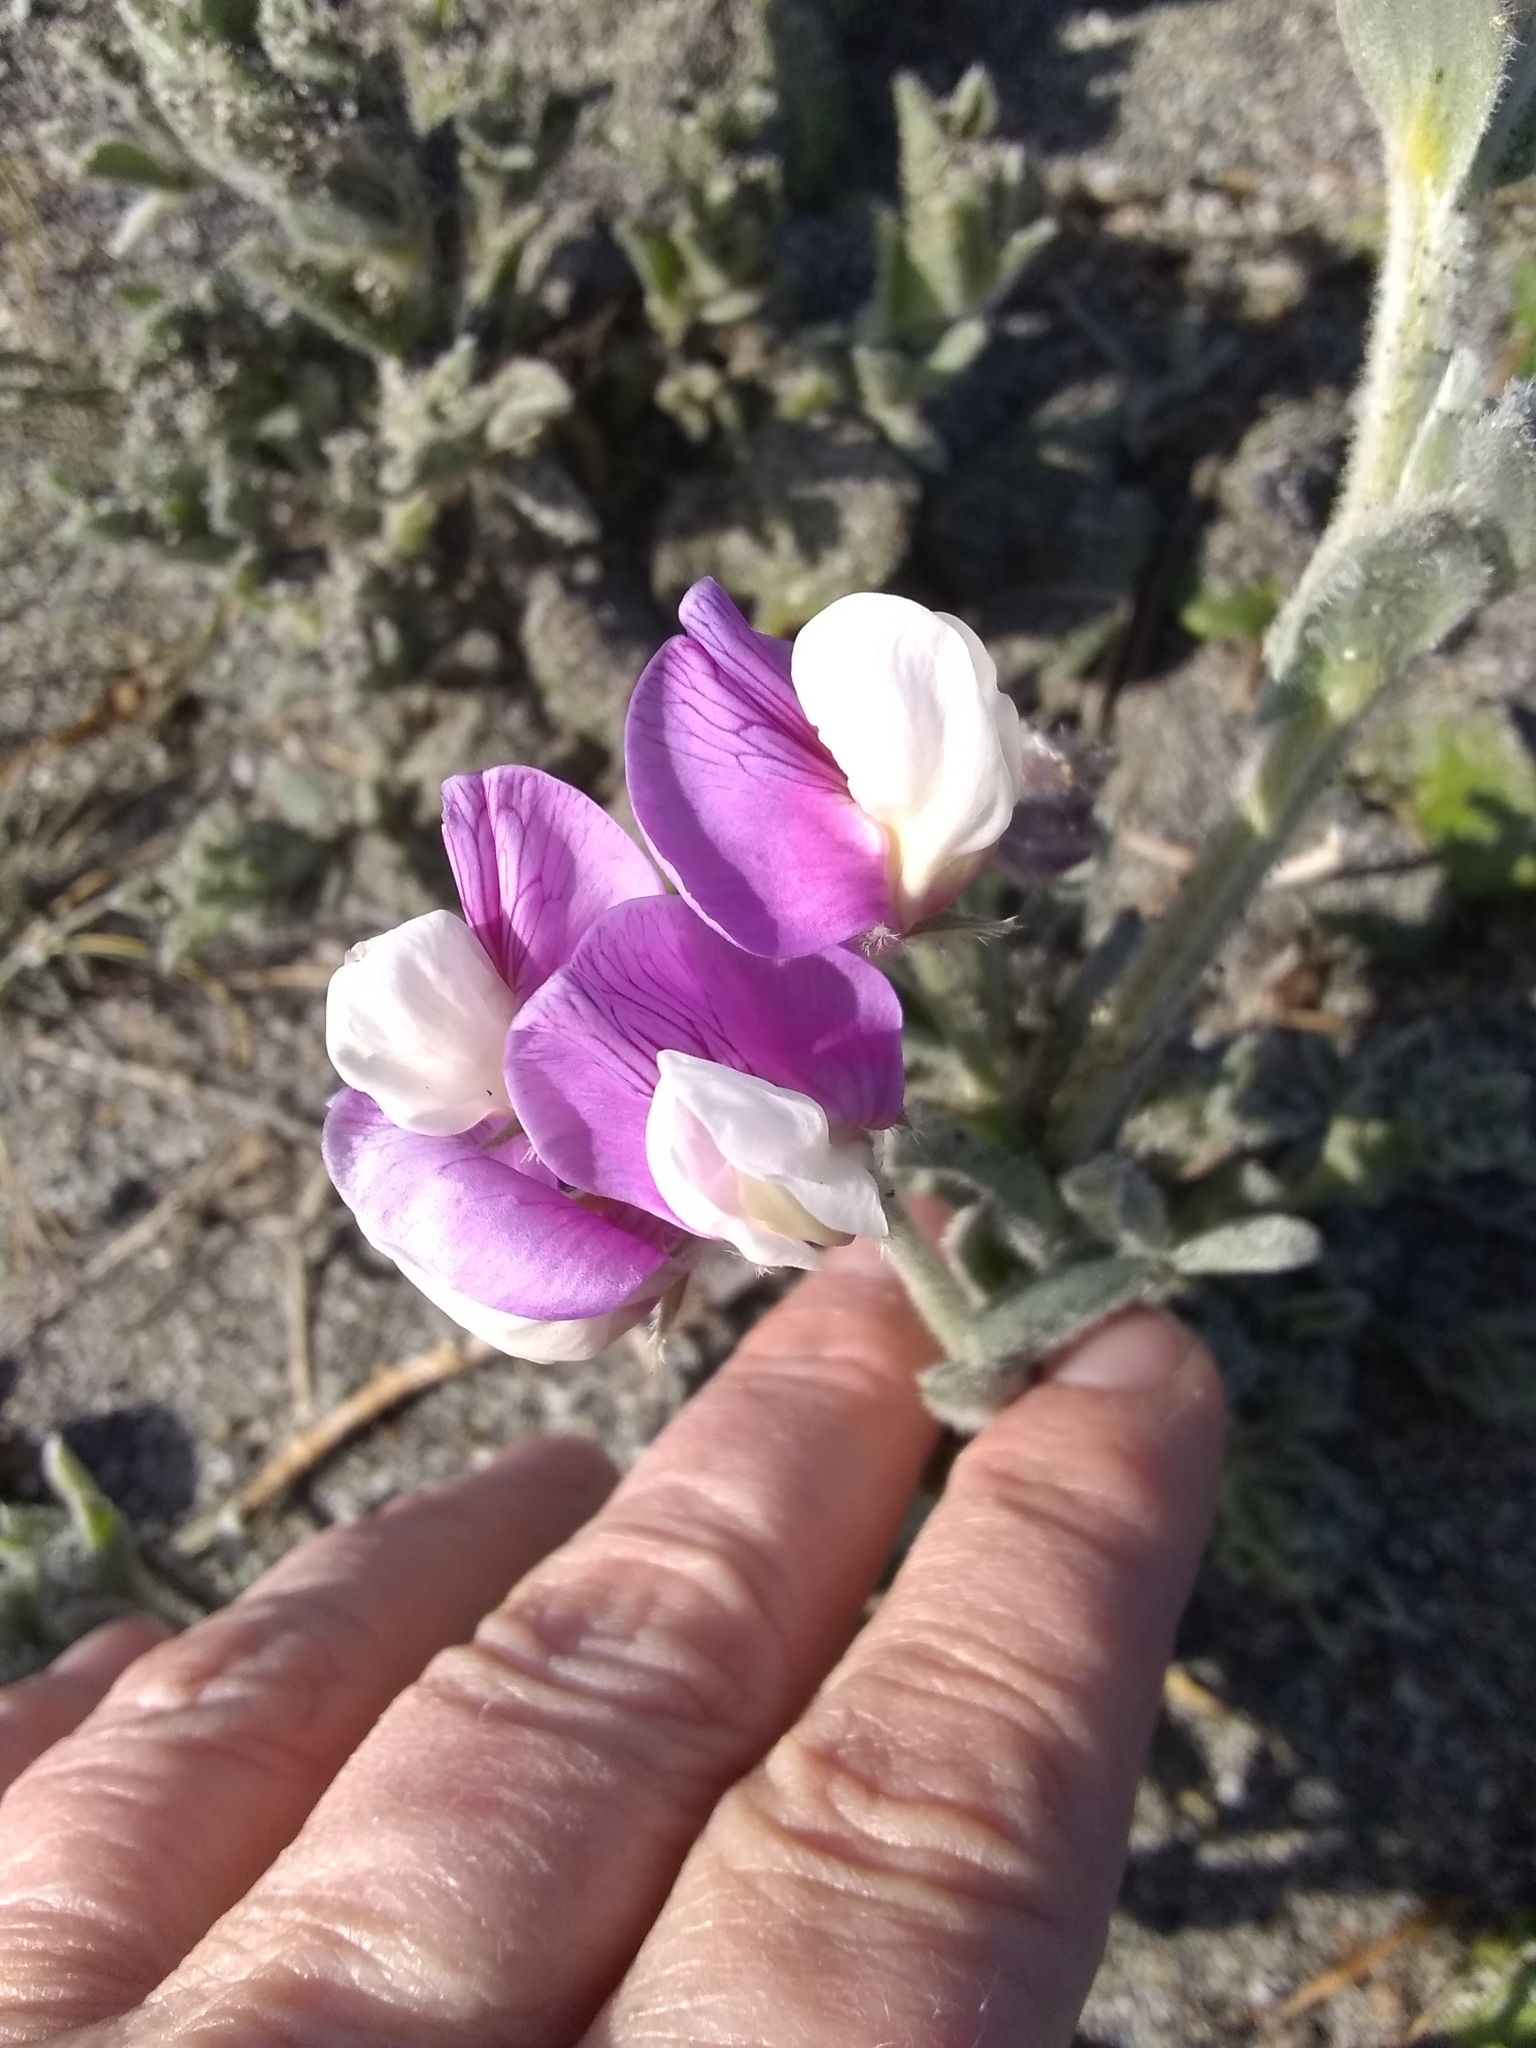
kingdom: Plantae
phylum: Tracheophyta
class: Magnoliopsida
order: Fabales
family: Fabaceae
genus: Lathyrus
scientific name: Lathyrus littoralis
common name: Dune sweet pea
